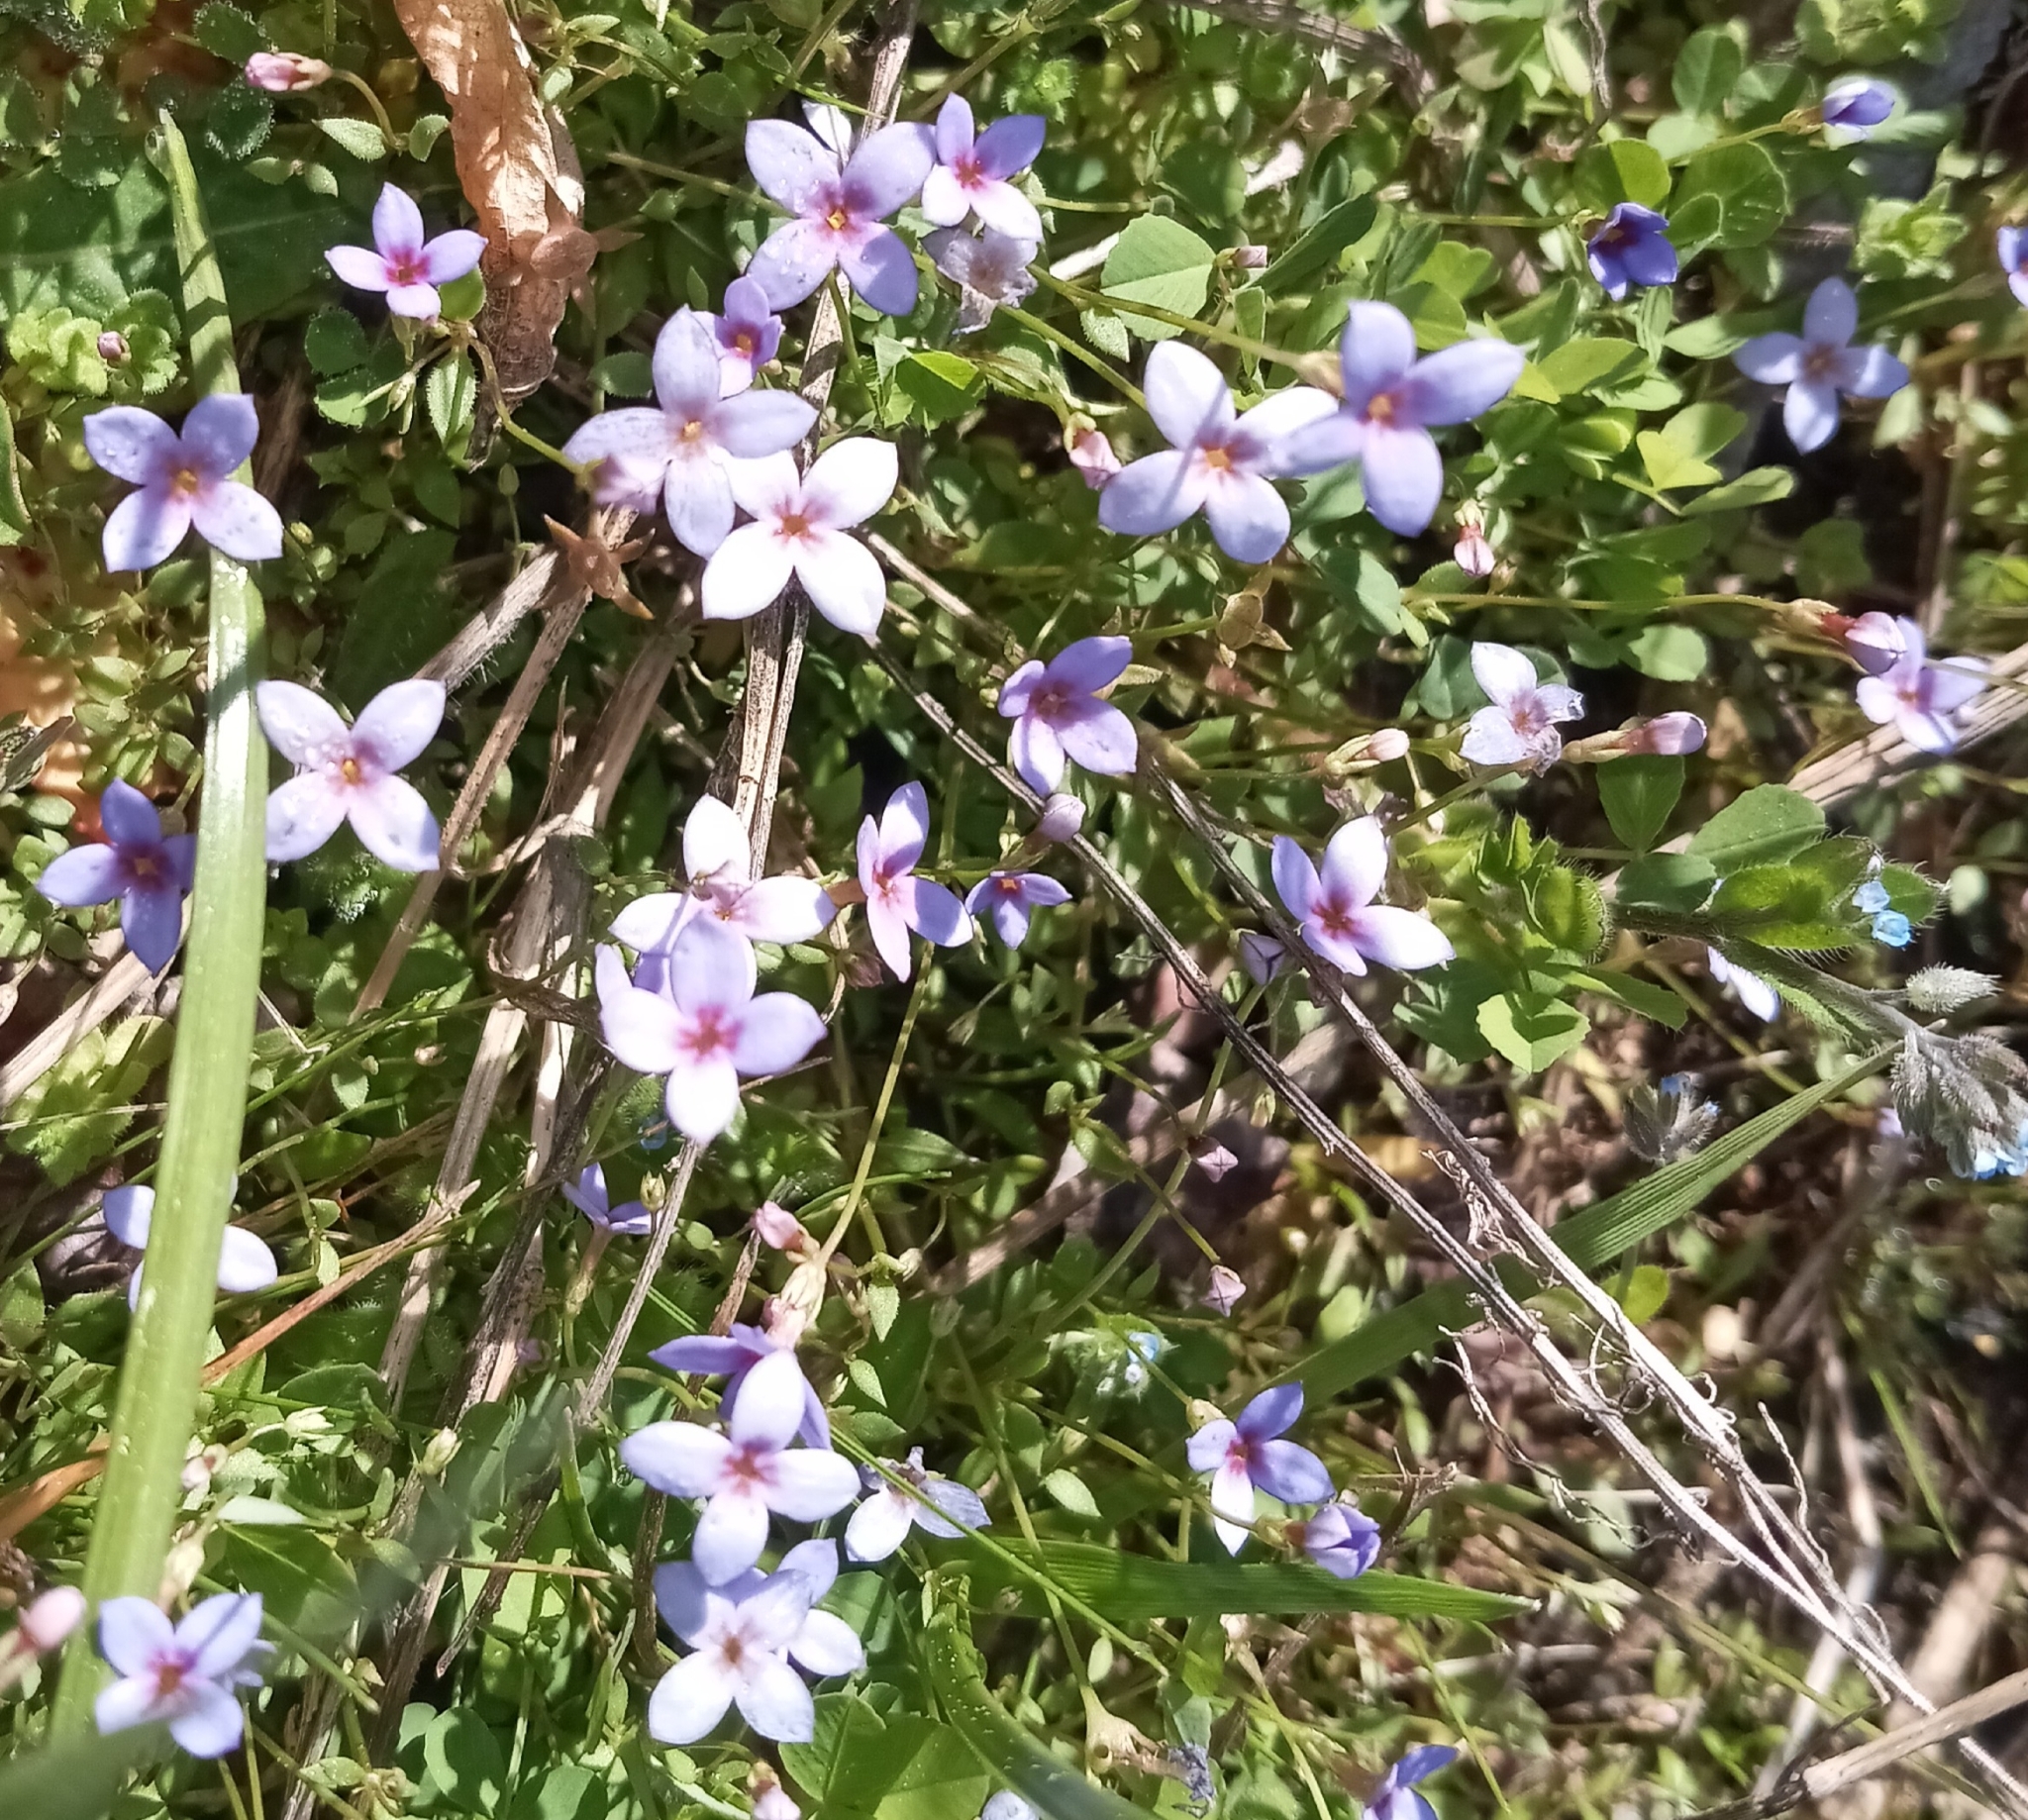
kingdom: Plantae
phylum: Tracheophyta
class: Magnoliopsida
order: Gentianales
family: Rubiaceae
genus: Houstonia
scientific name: Houstonia pusilla
